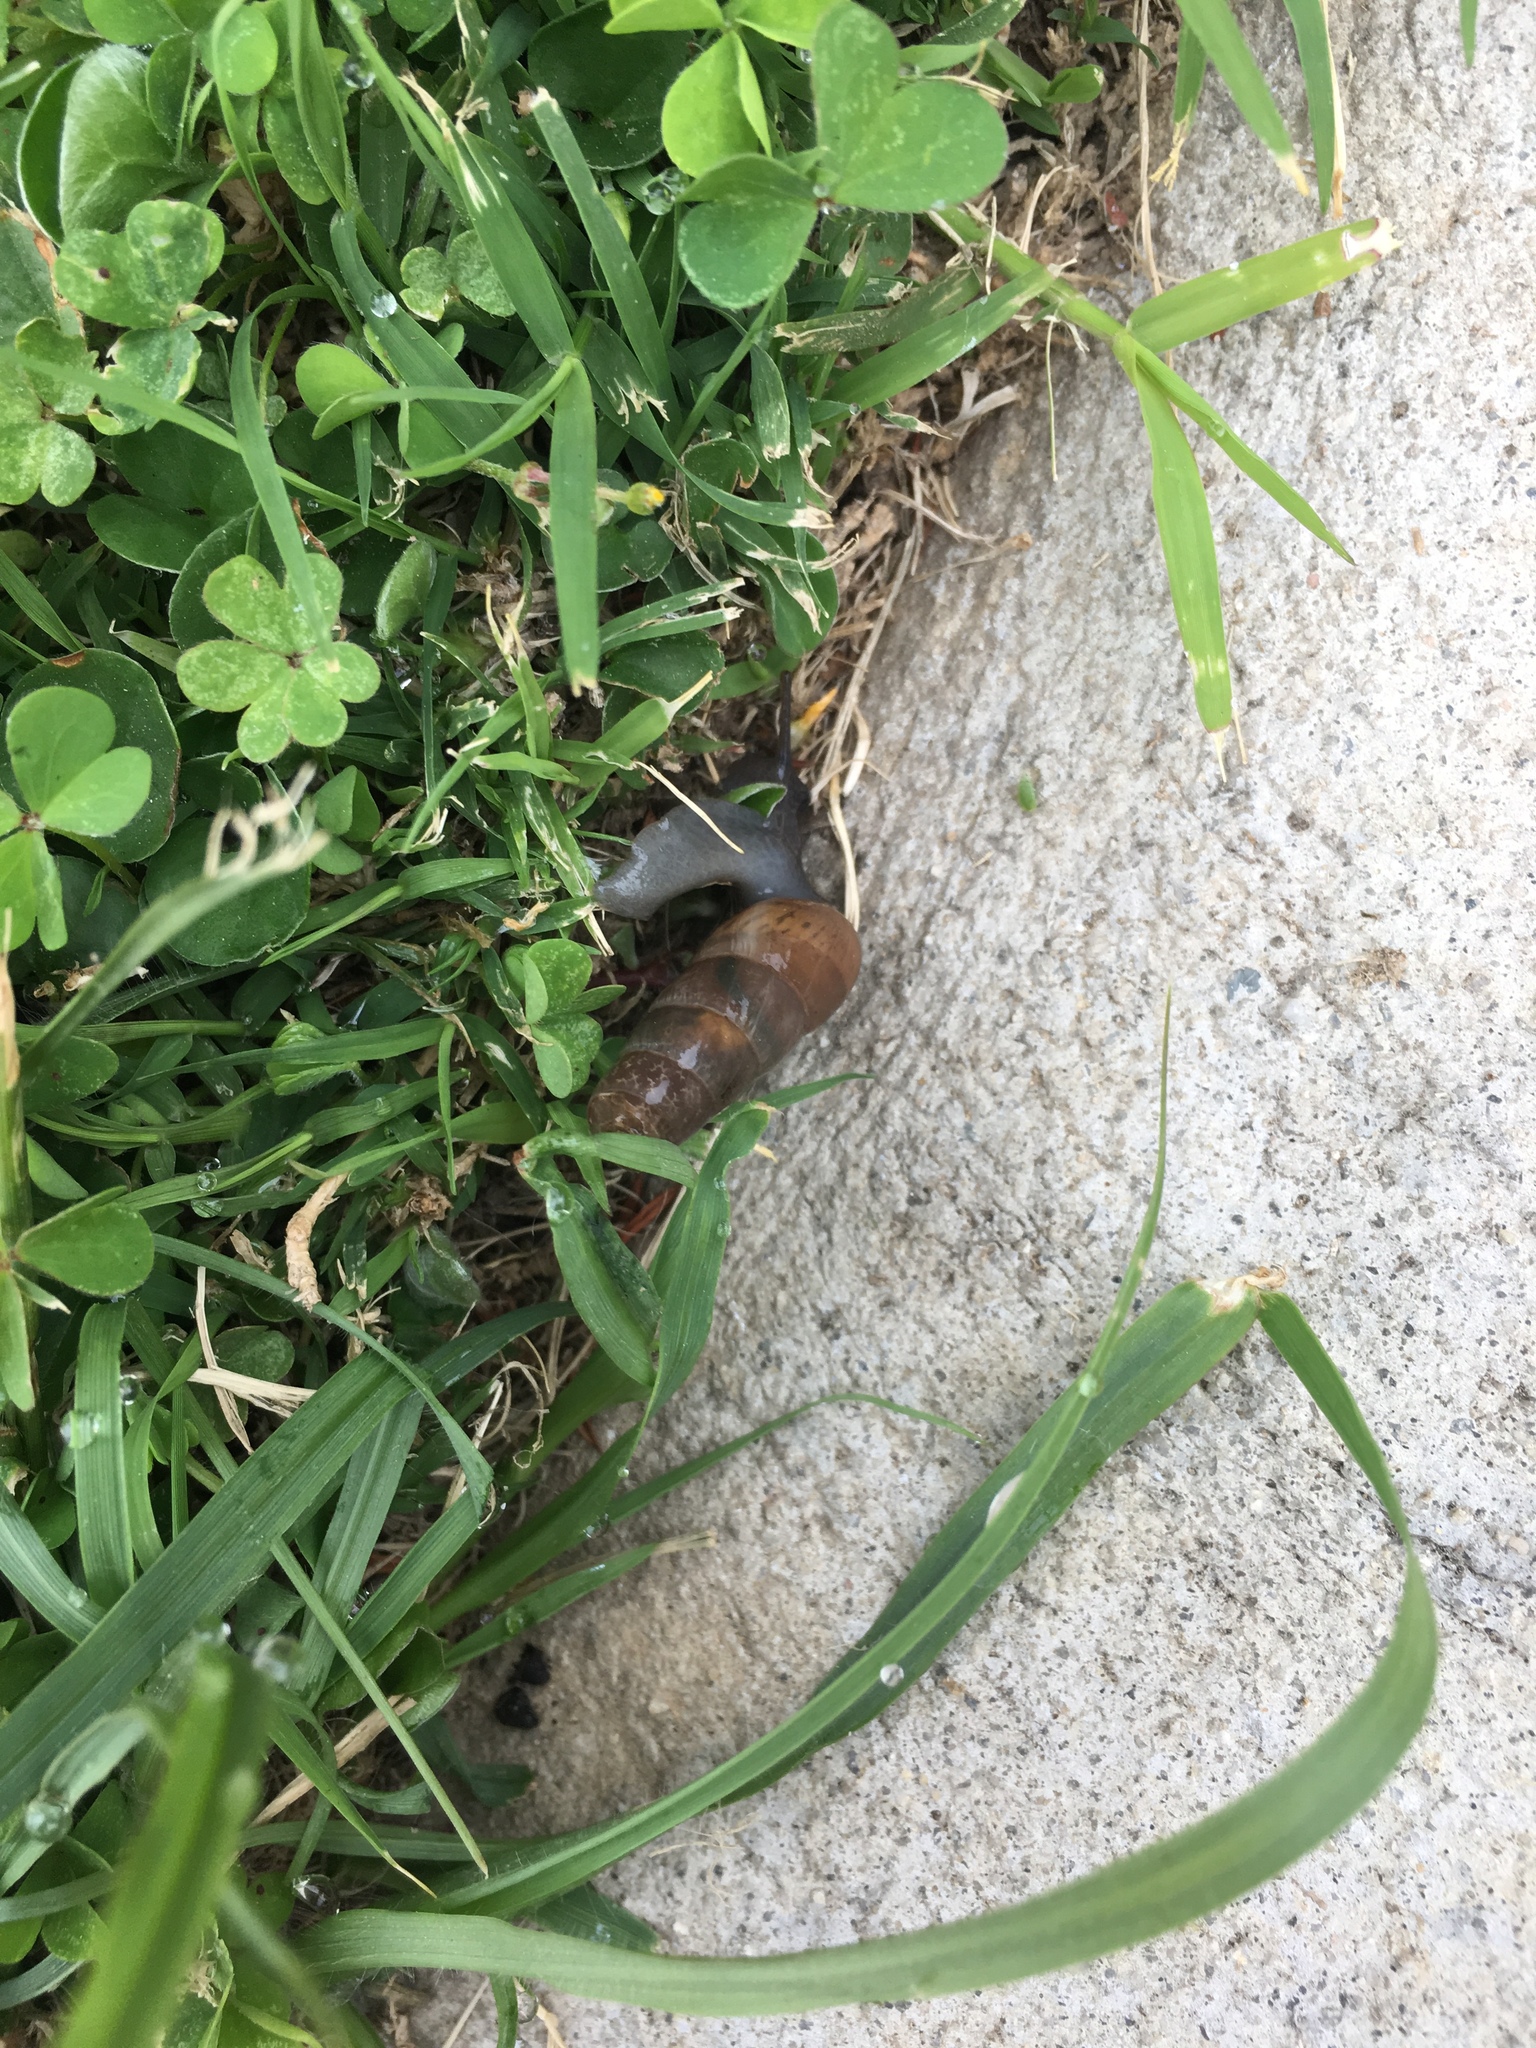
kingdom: Animalia
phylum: Mollusca
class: Gastropoda
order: Stylommatophora
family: Achatinidae
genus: Rumina
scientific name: Rumina decollata
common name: Decollate snail
